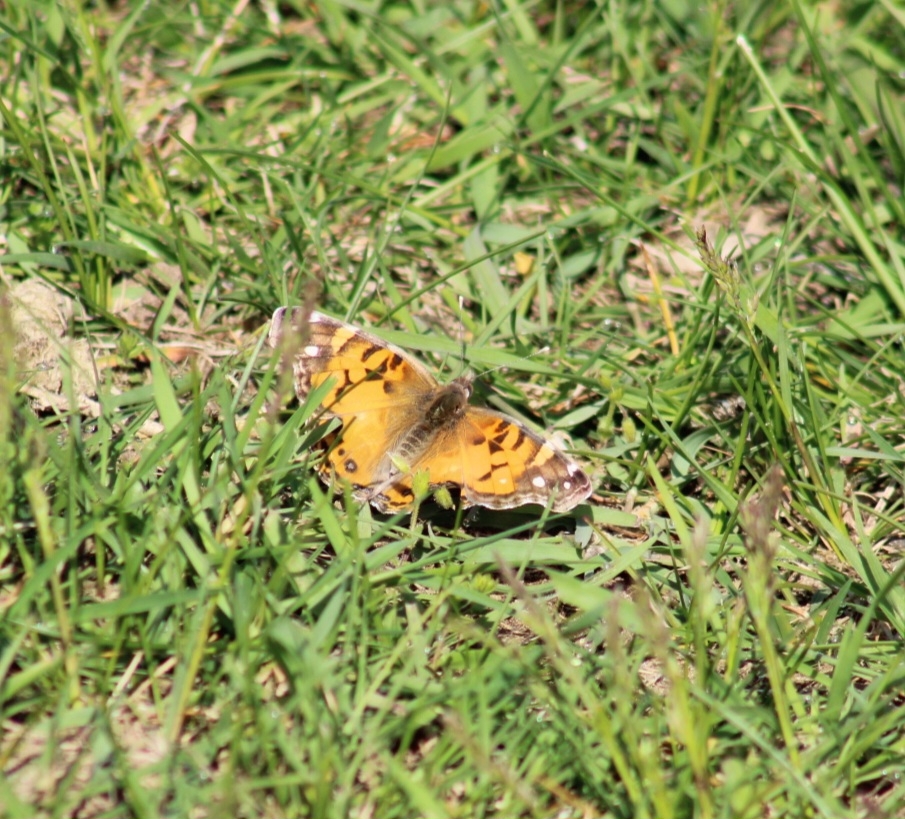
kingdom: Animalia
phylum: Arthropoda
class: Insecta
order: Lepidoptera
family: Nymphalidae
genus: Vanessa
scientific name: Vanessa virginiensis
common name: American lady
